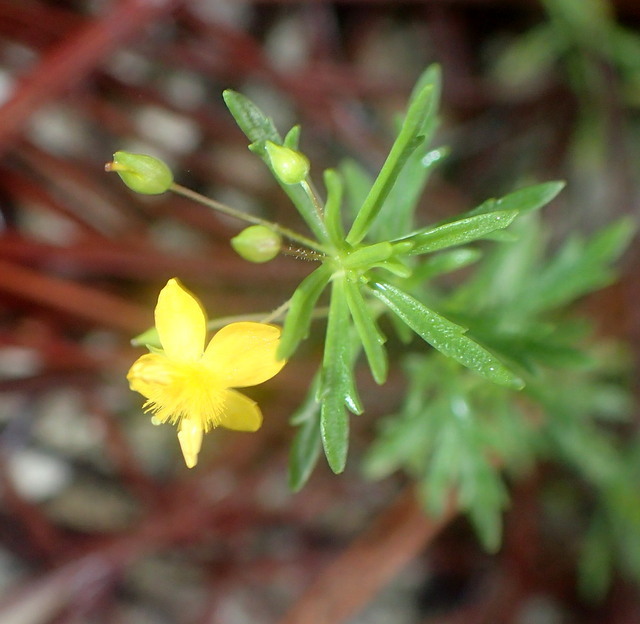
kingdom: Plantae
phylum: Tracheophyta
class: Magnoliopsida
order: Lamiales
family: Plantaginaceae
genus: Scoparia
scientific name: Scoparia montevidensis
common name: Broomwort
